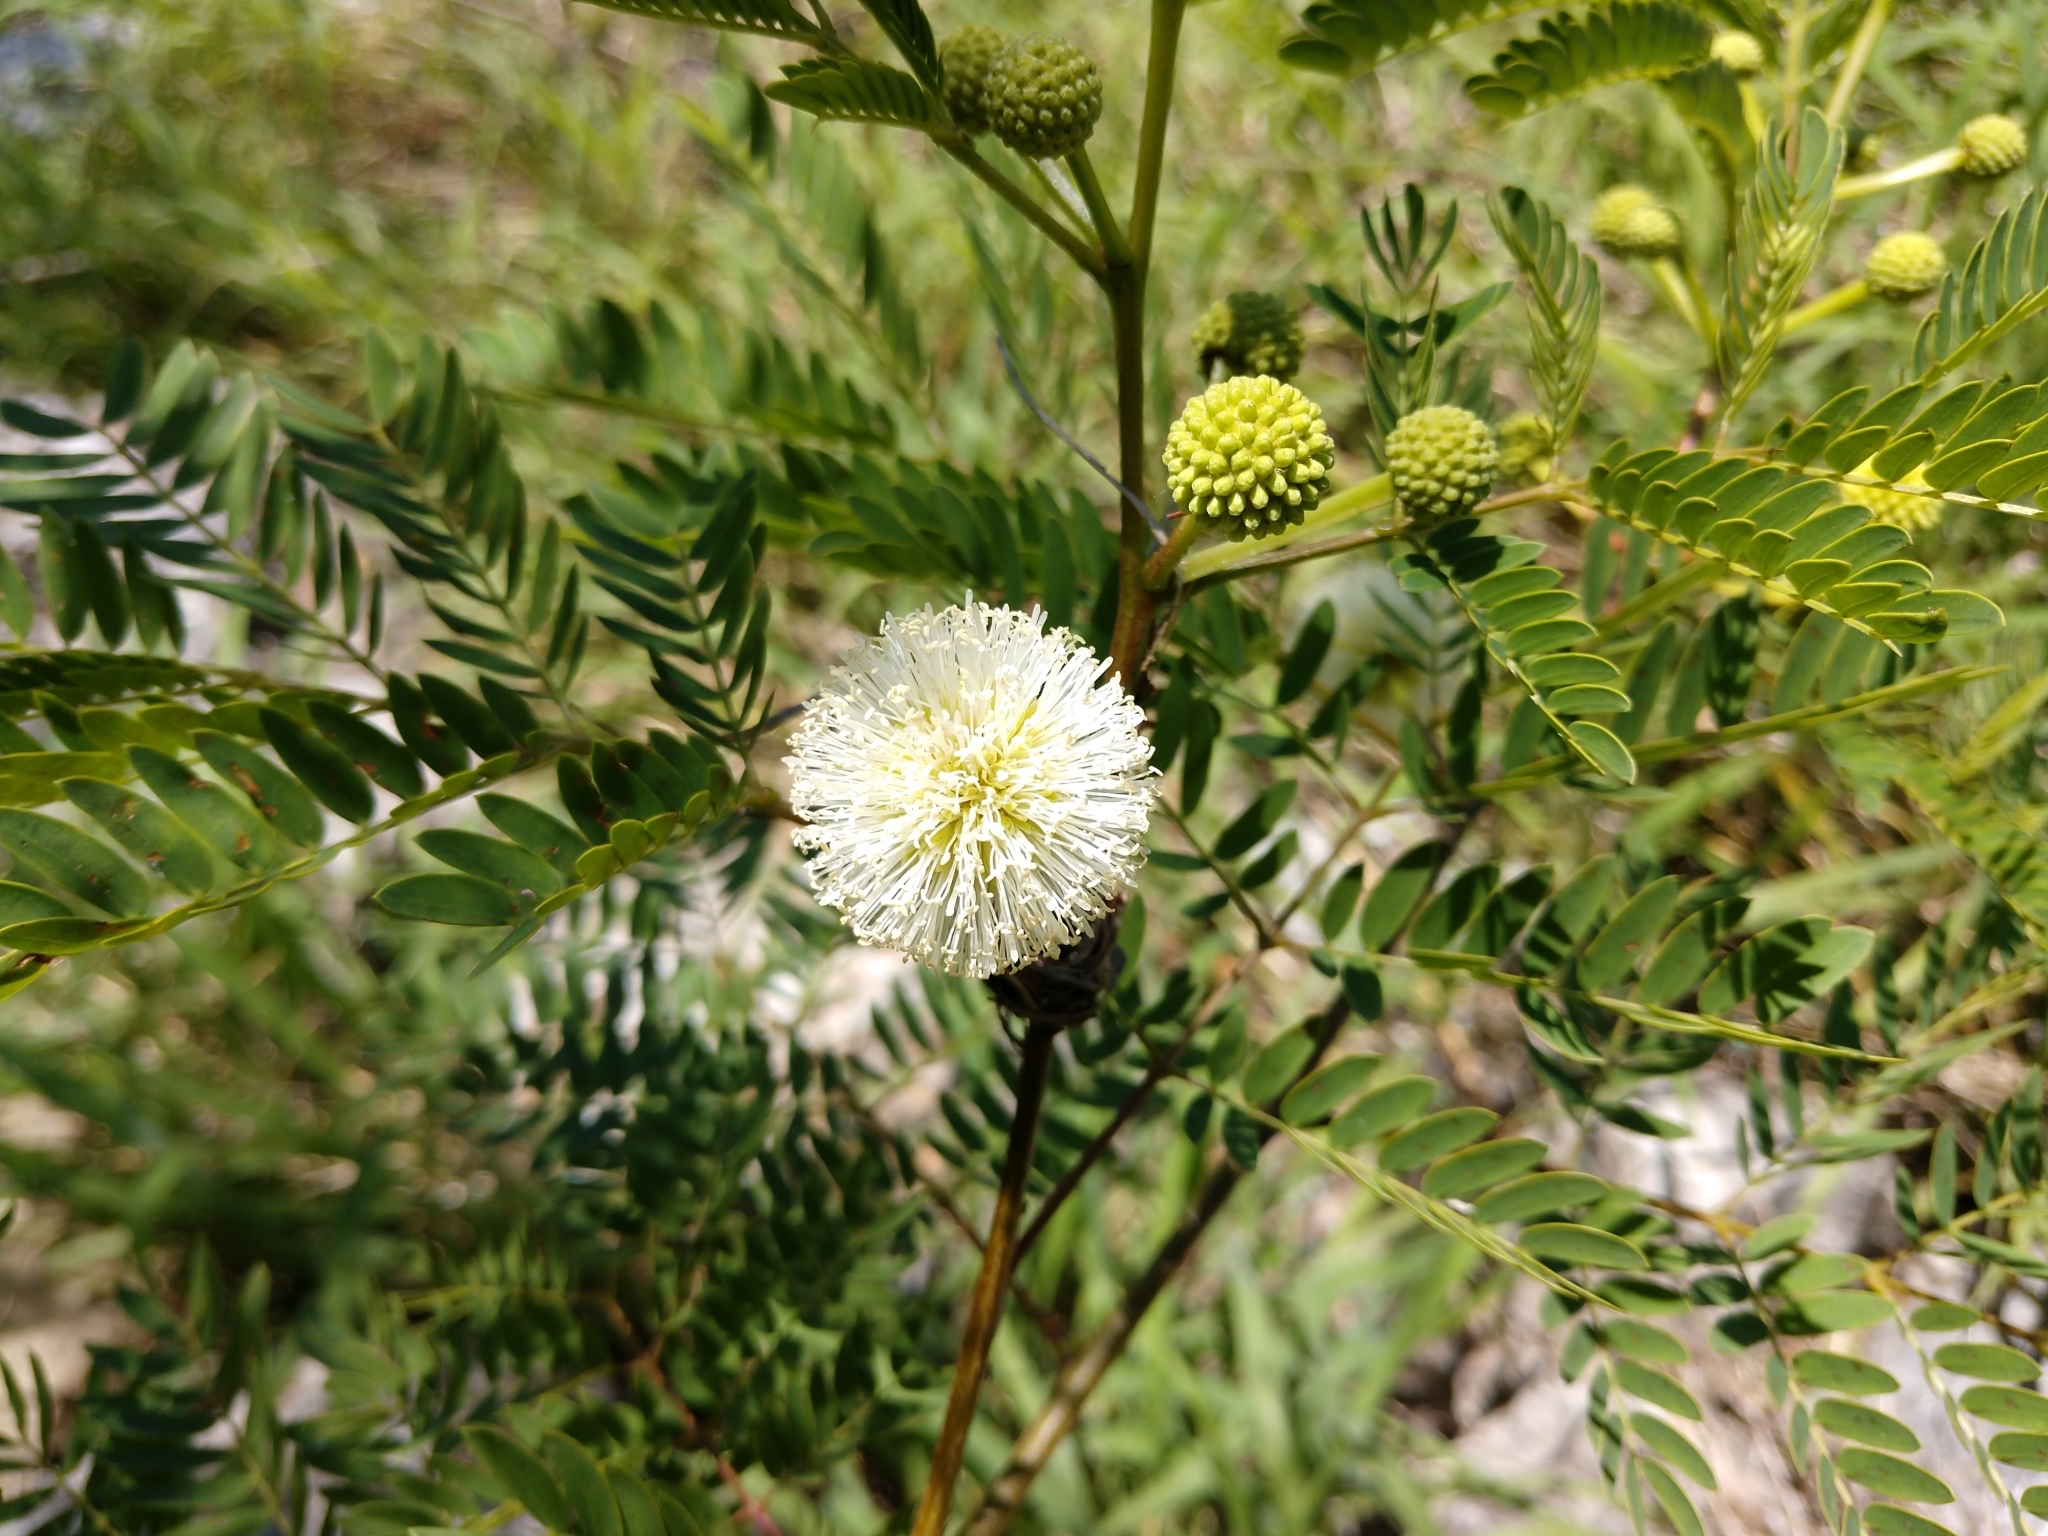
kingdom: Plantae
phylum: Tracheophyta
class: Magnoliopsida
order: Fabales
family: Fabaceae
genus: Leucaena
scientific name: Leucaena leucocephala
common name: White leadtree
